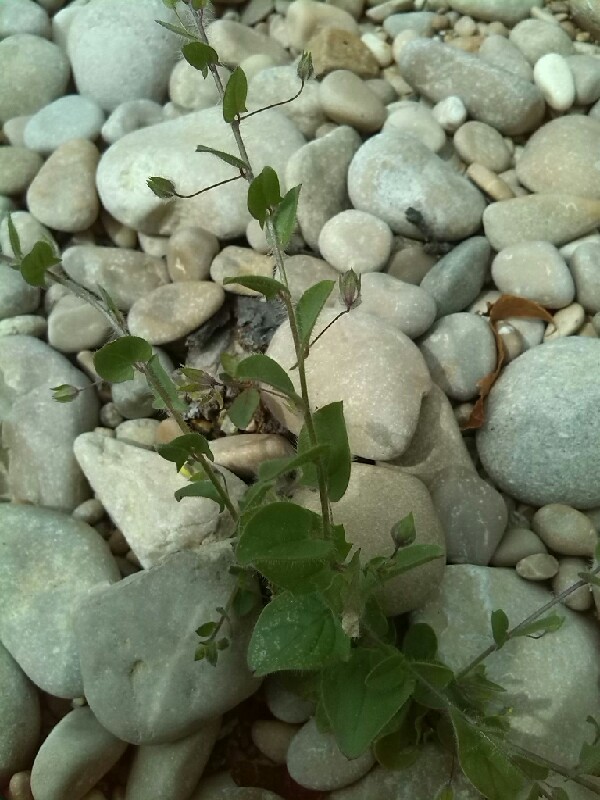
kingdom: Plantae
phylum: Tracheophyta
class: Magnoliopsida
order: Lamiales
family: Plantaginaceae
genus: Kickxia
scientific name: Kickxia elatine
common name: Sharp-leaved fluellen
